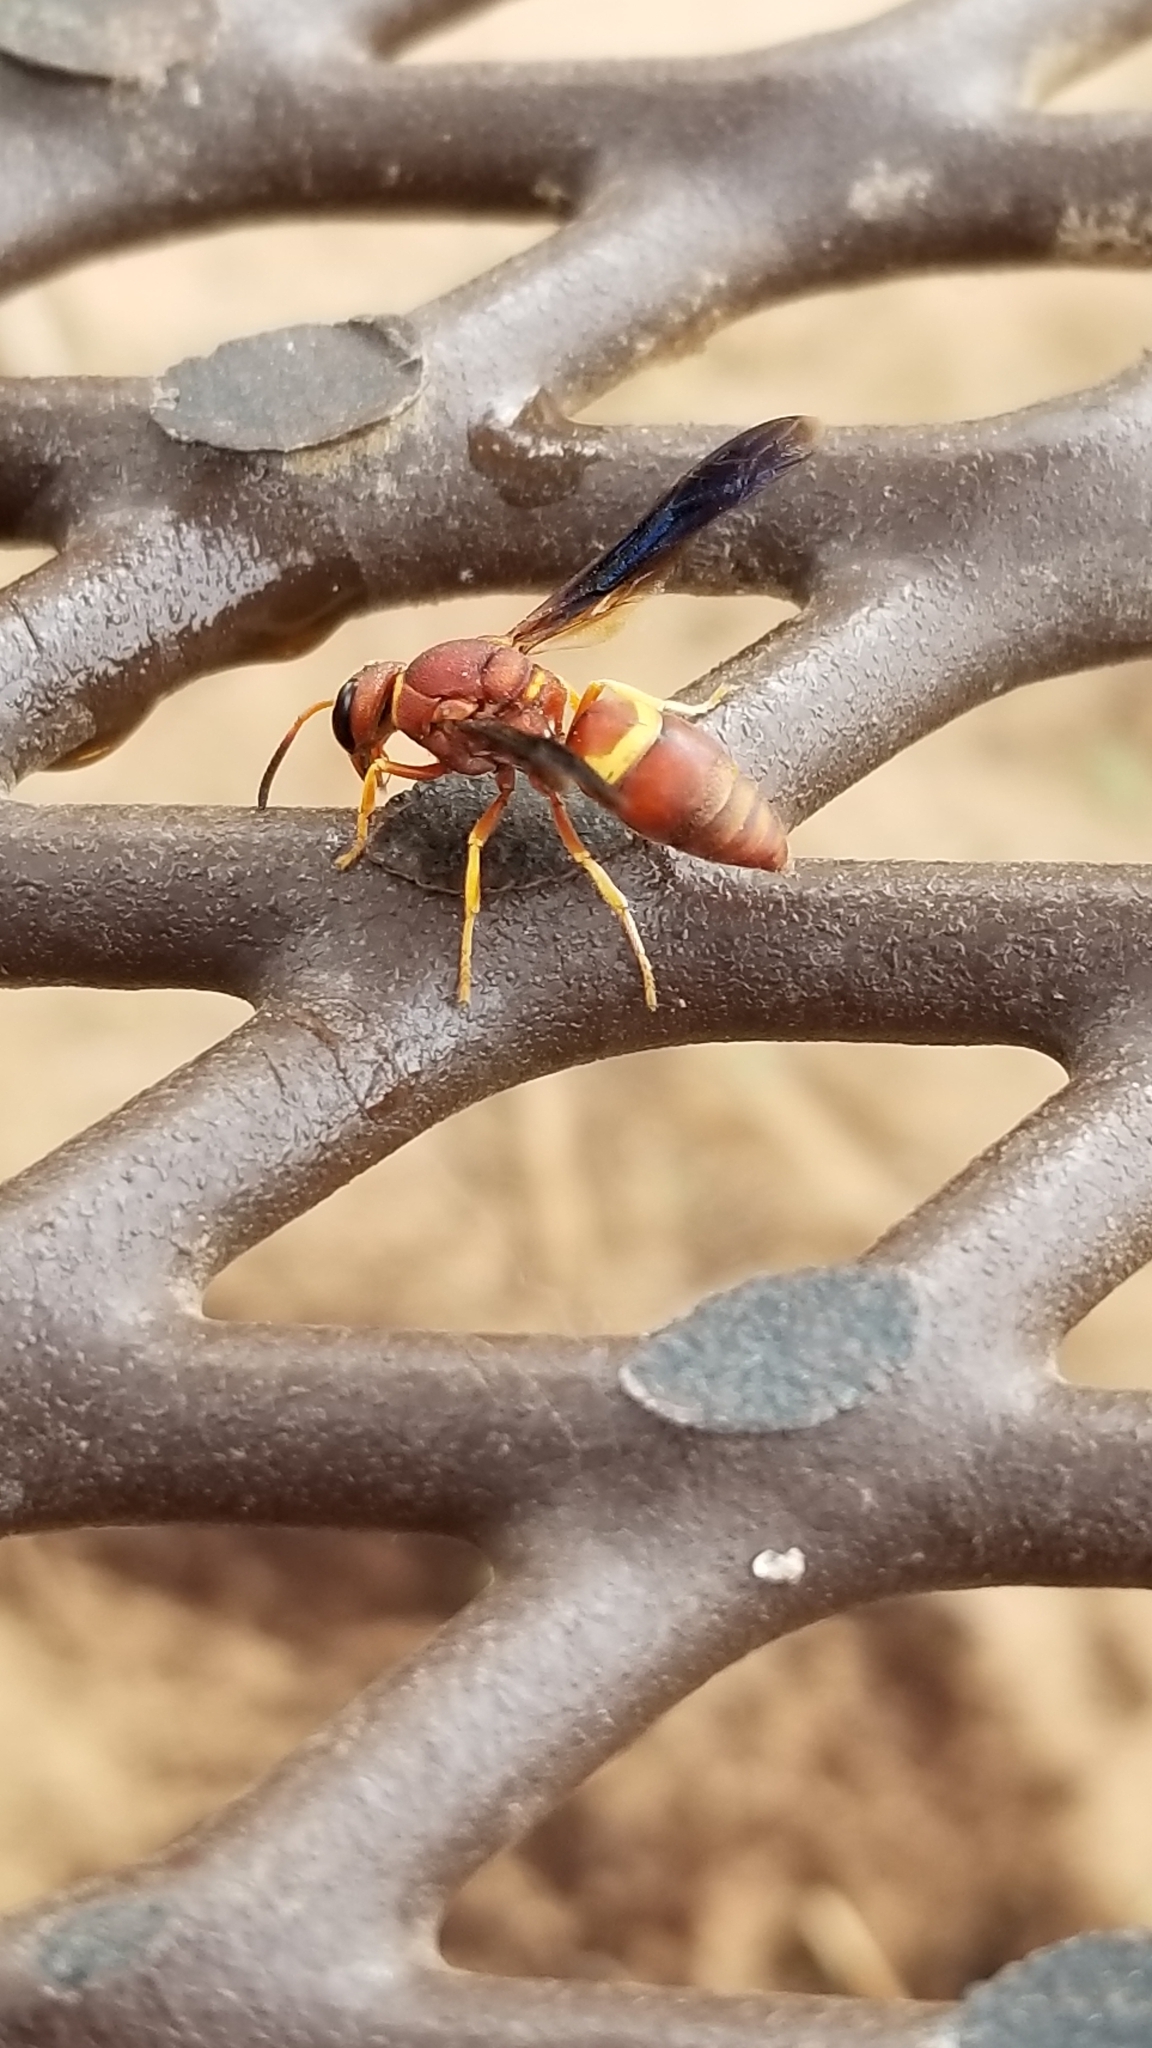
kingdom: Animalia
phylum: Arthropoda
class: Insecta
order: Hymenoptera
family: Eumenidae
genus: Euodynerus
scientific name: Euodynerus crypticus
